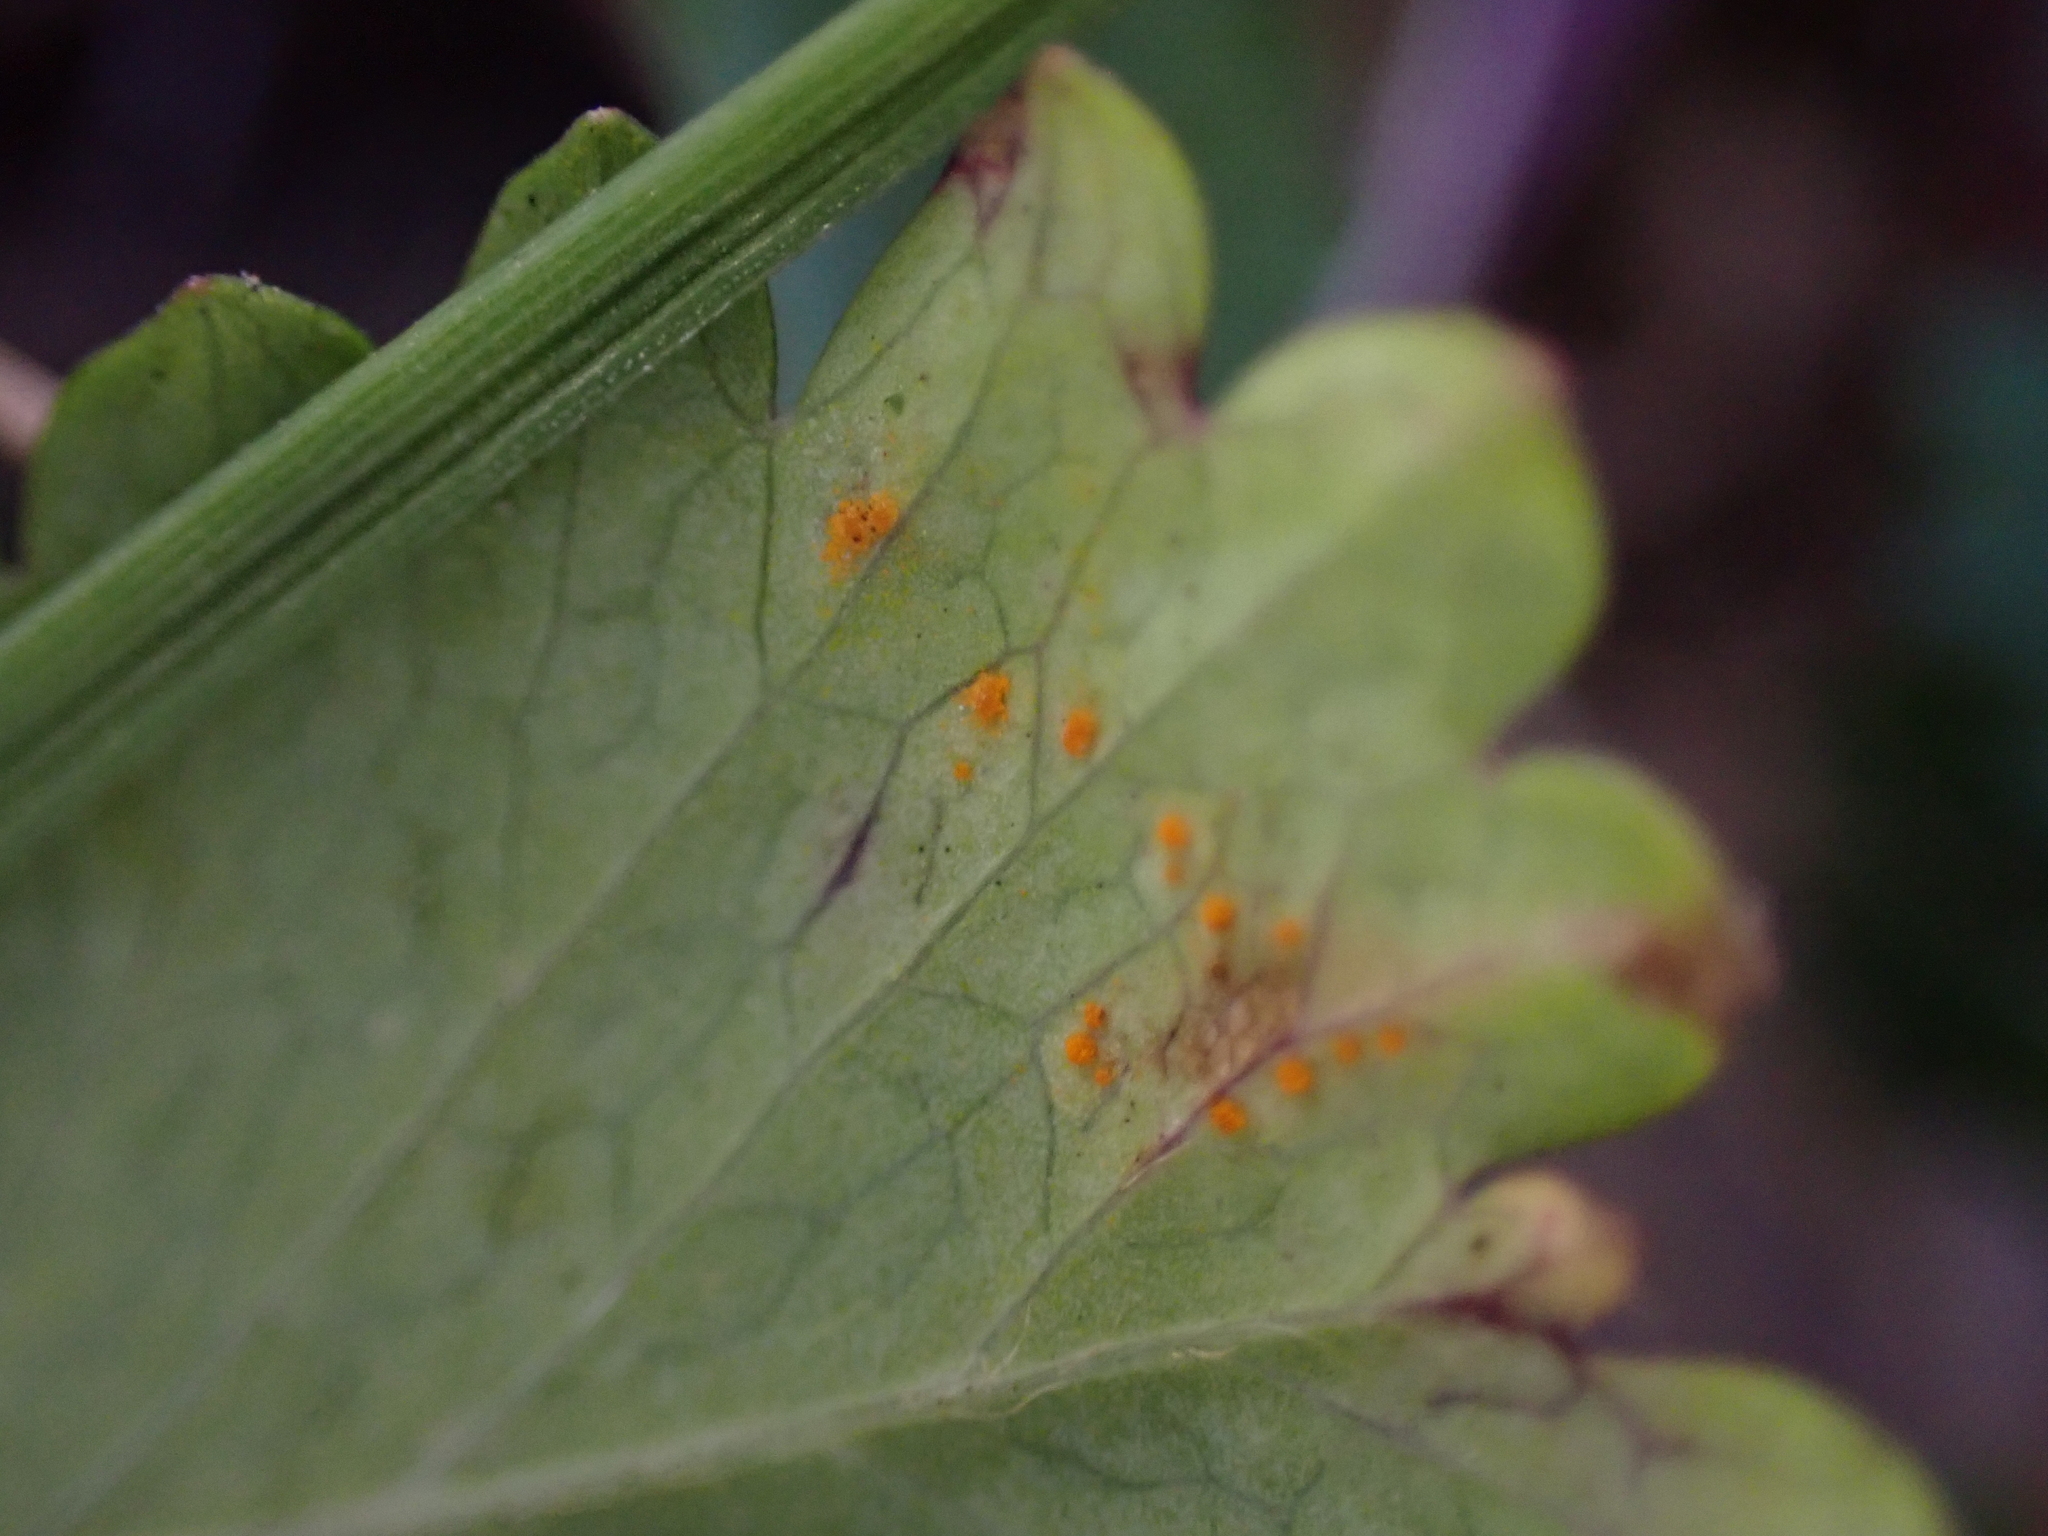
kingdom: Fungi
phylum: Basidiomycota
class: Pucciniomycetes
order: Pucciniales
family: Phragmidiaceae
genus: Phragmidium
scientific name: Phragmidium sanguisorbae
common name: Salad burnet rust
